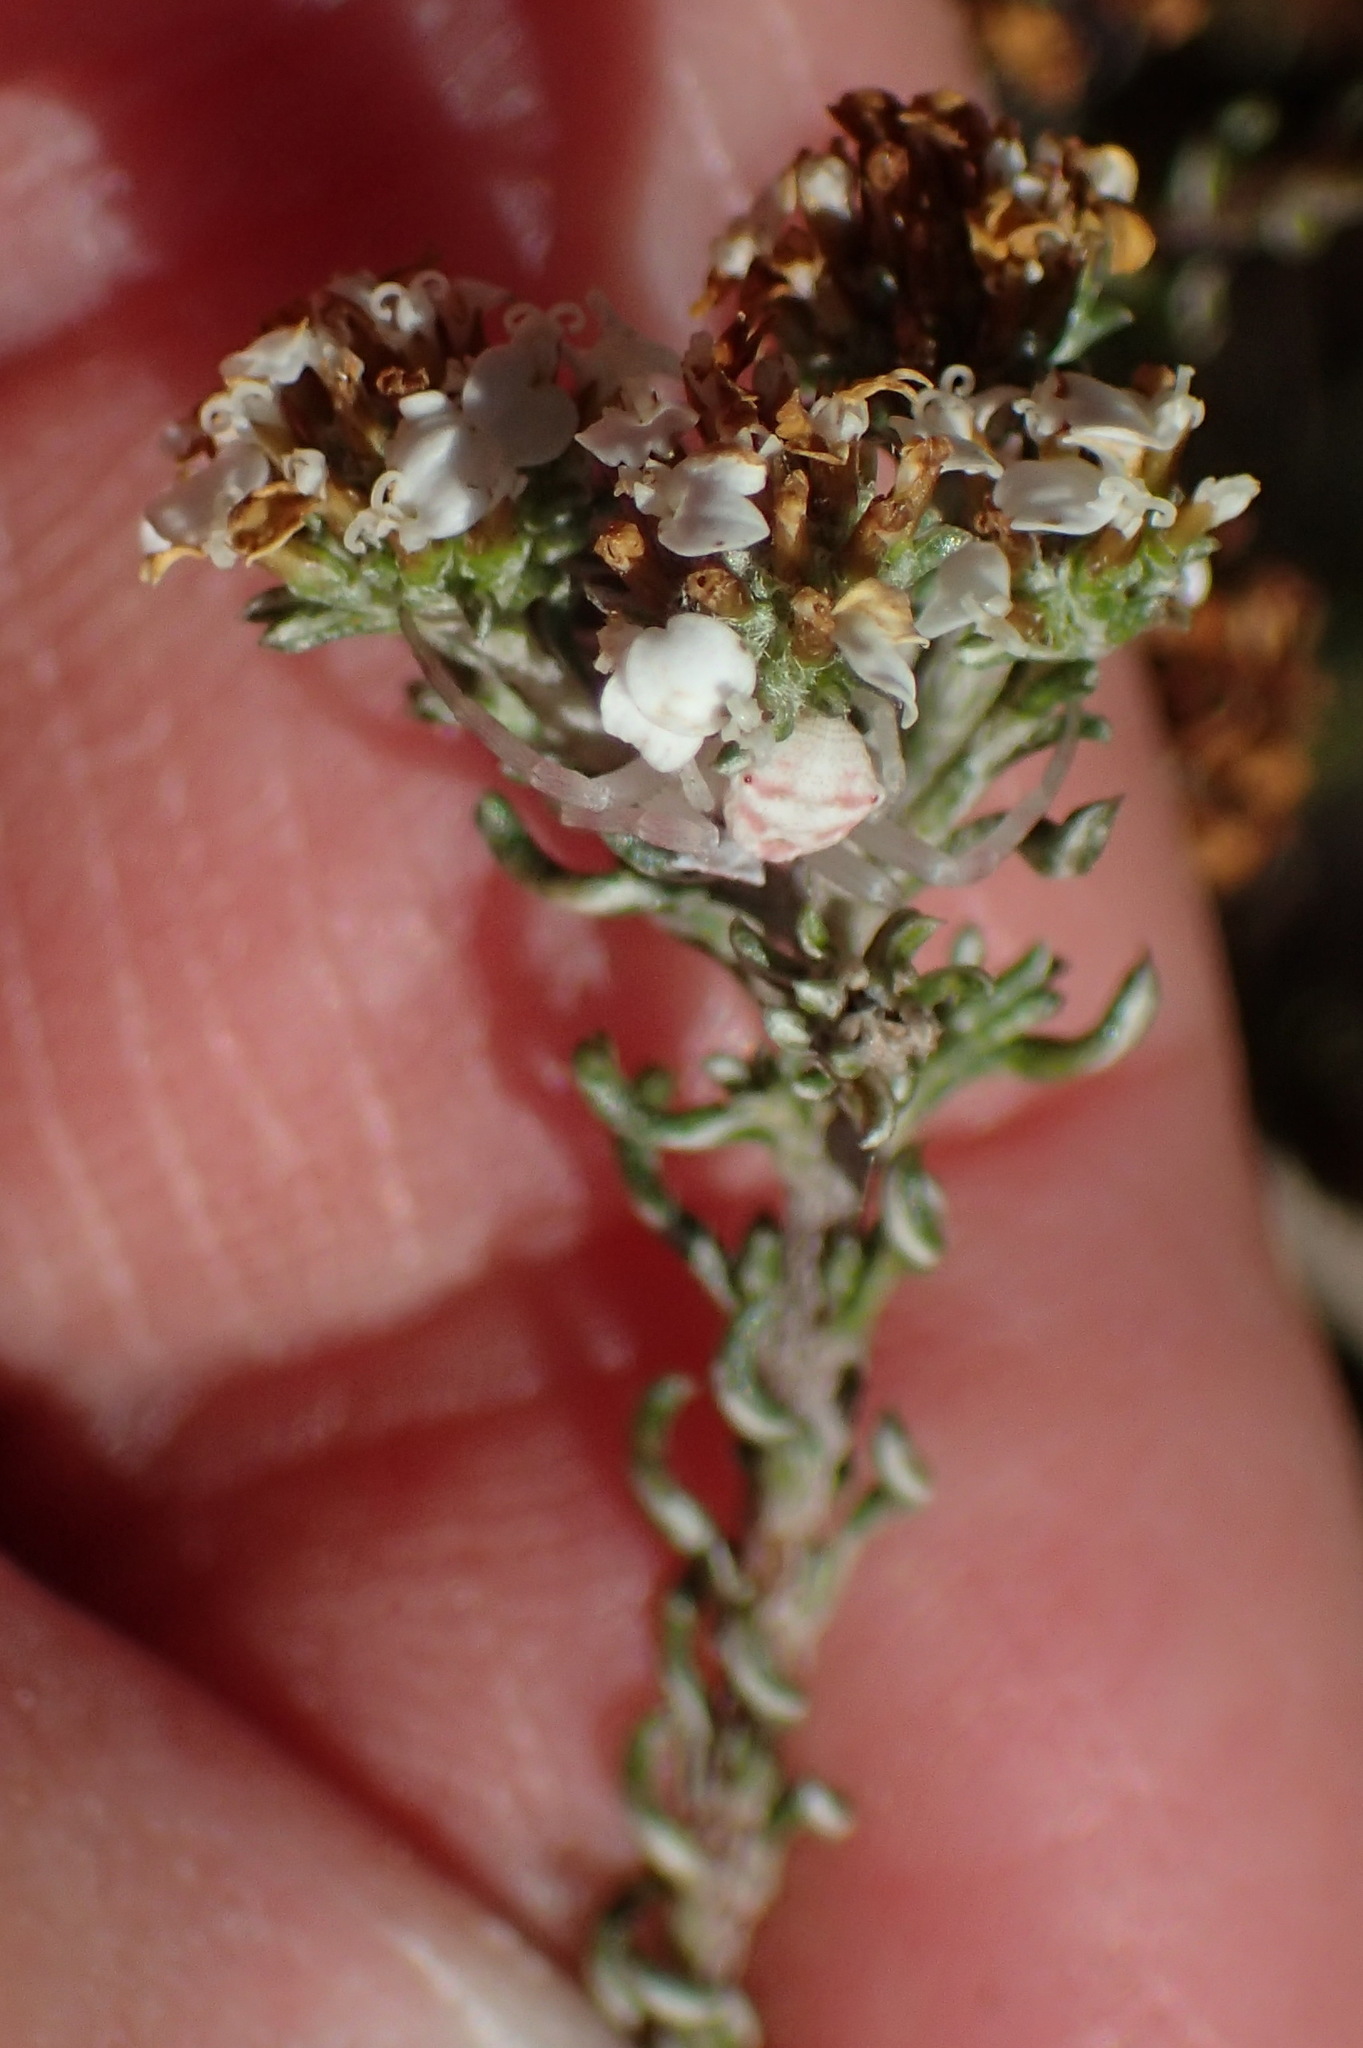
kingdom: Plantae
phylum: Tracheophyta
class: Magnoliopsida
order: Asterales
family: Asteraceae
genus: Disparago
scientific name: Disparago anomala
